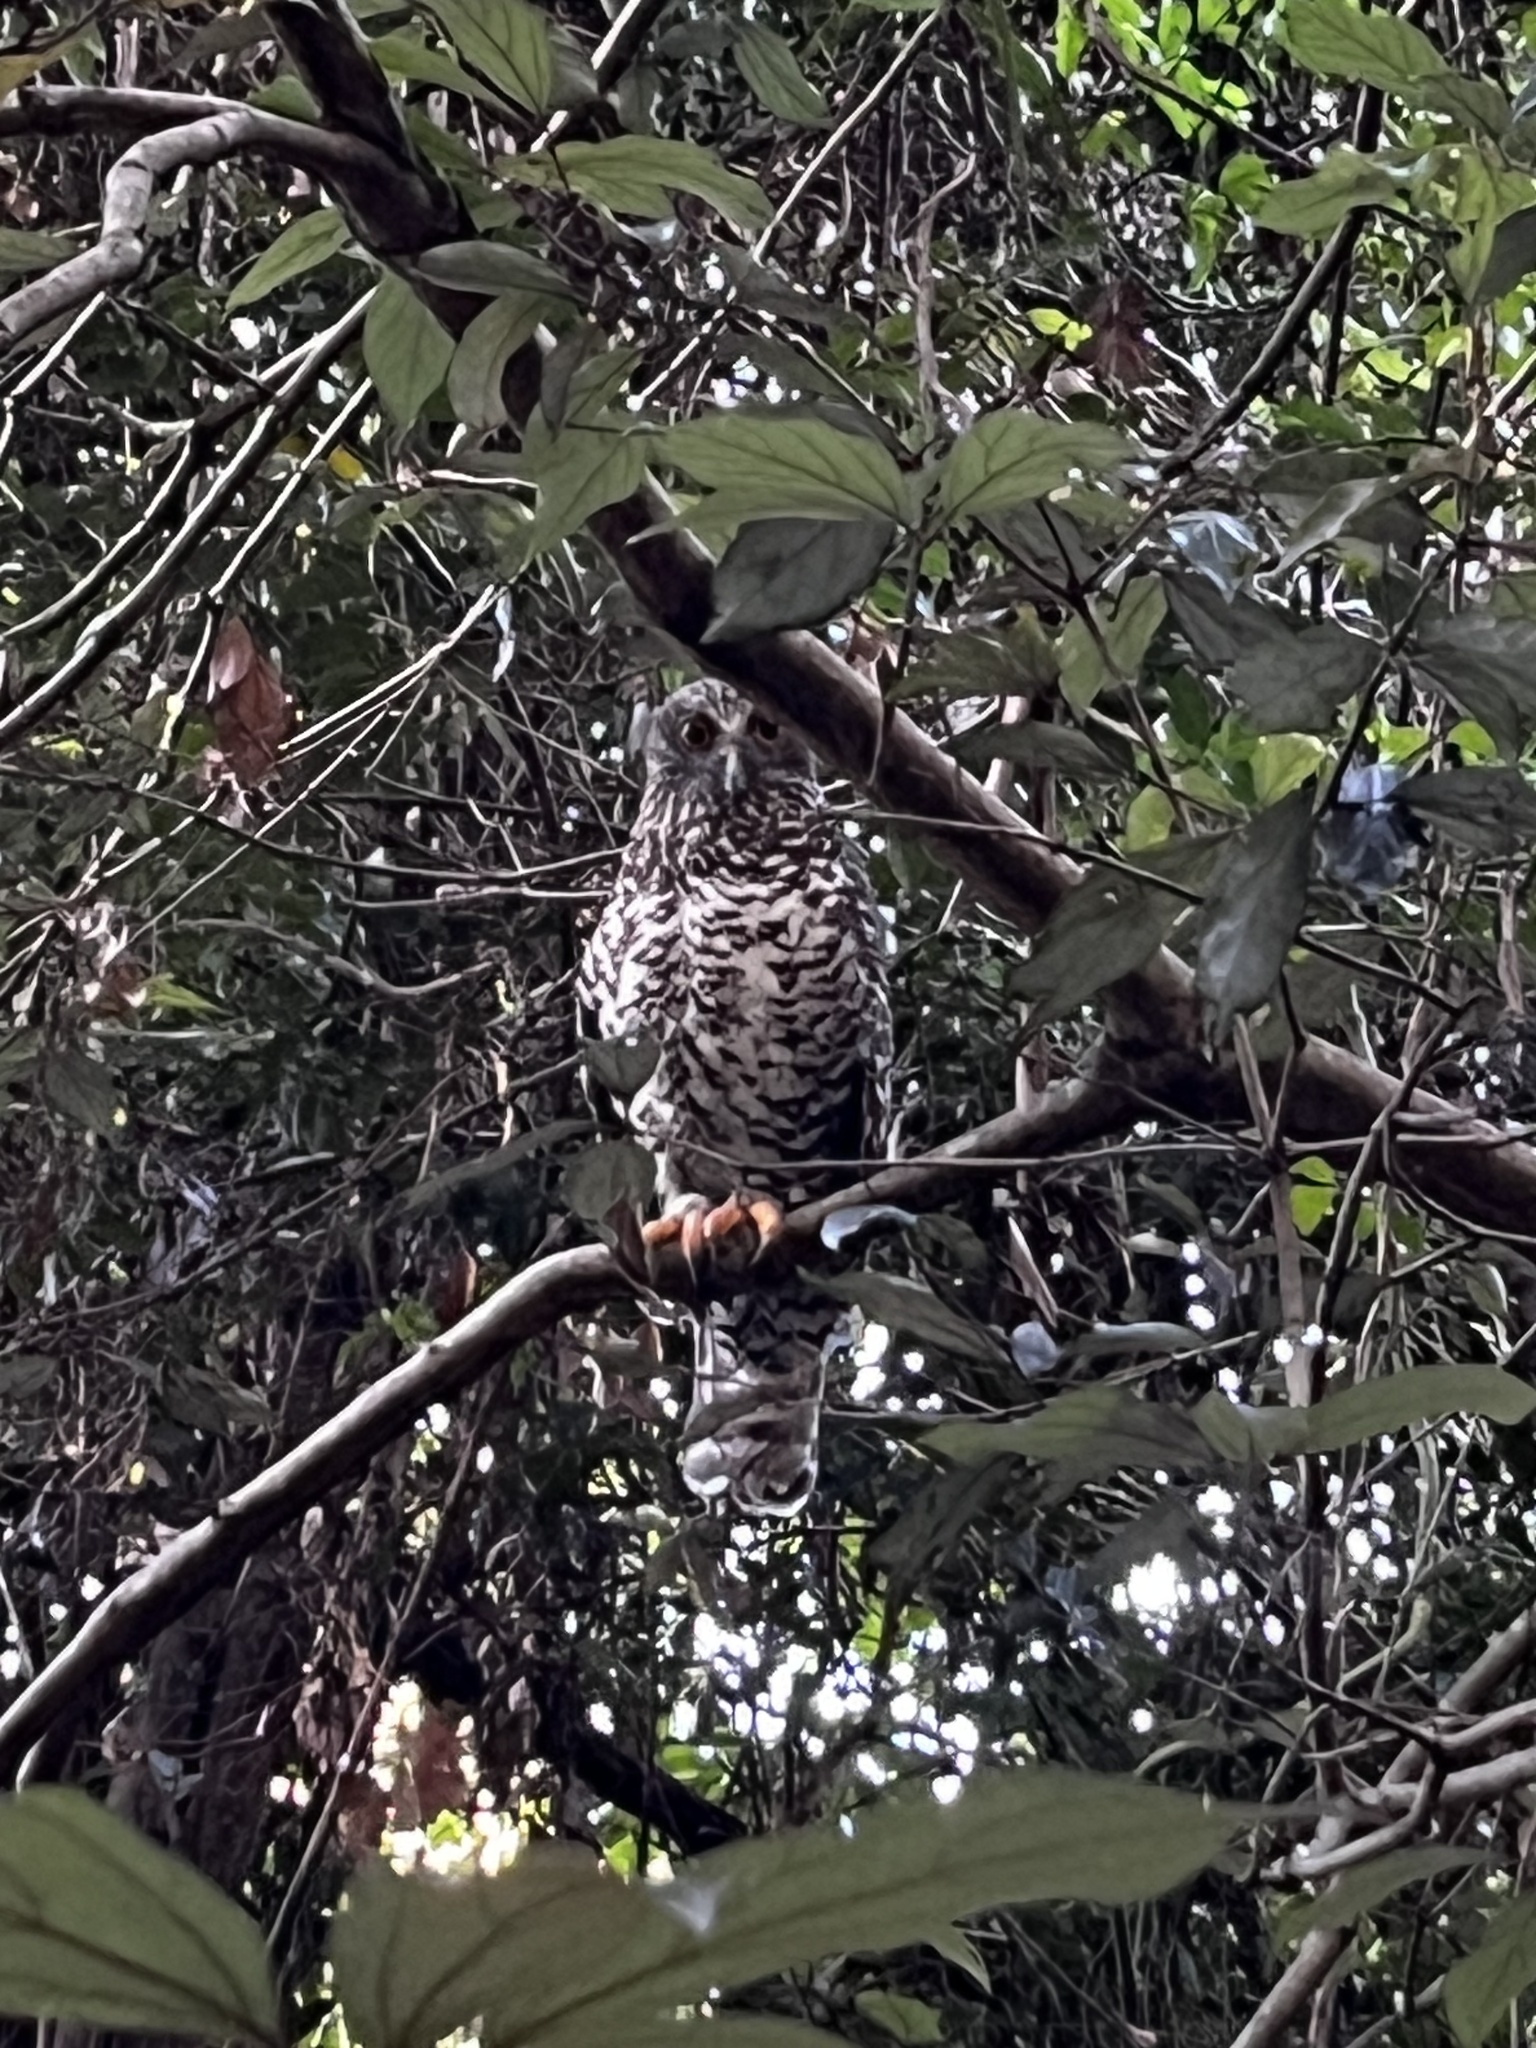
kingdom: Animalia
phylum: Chordata
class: Aves
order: Strigiformes
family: Strigidae
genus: Ninox
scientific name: Ninox strenua
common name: Powerful owl
